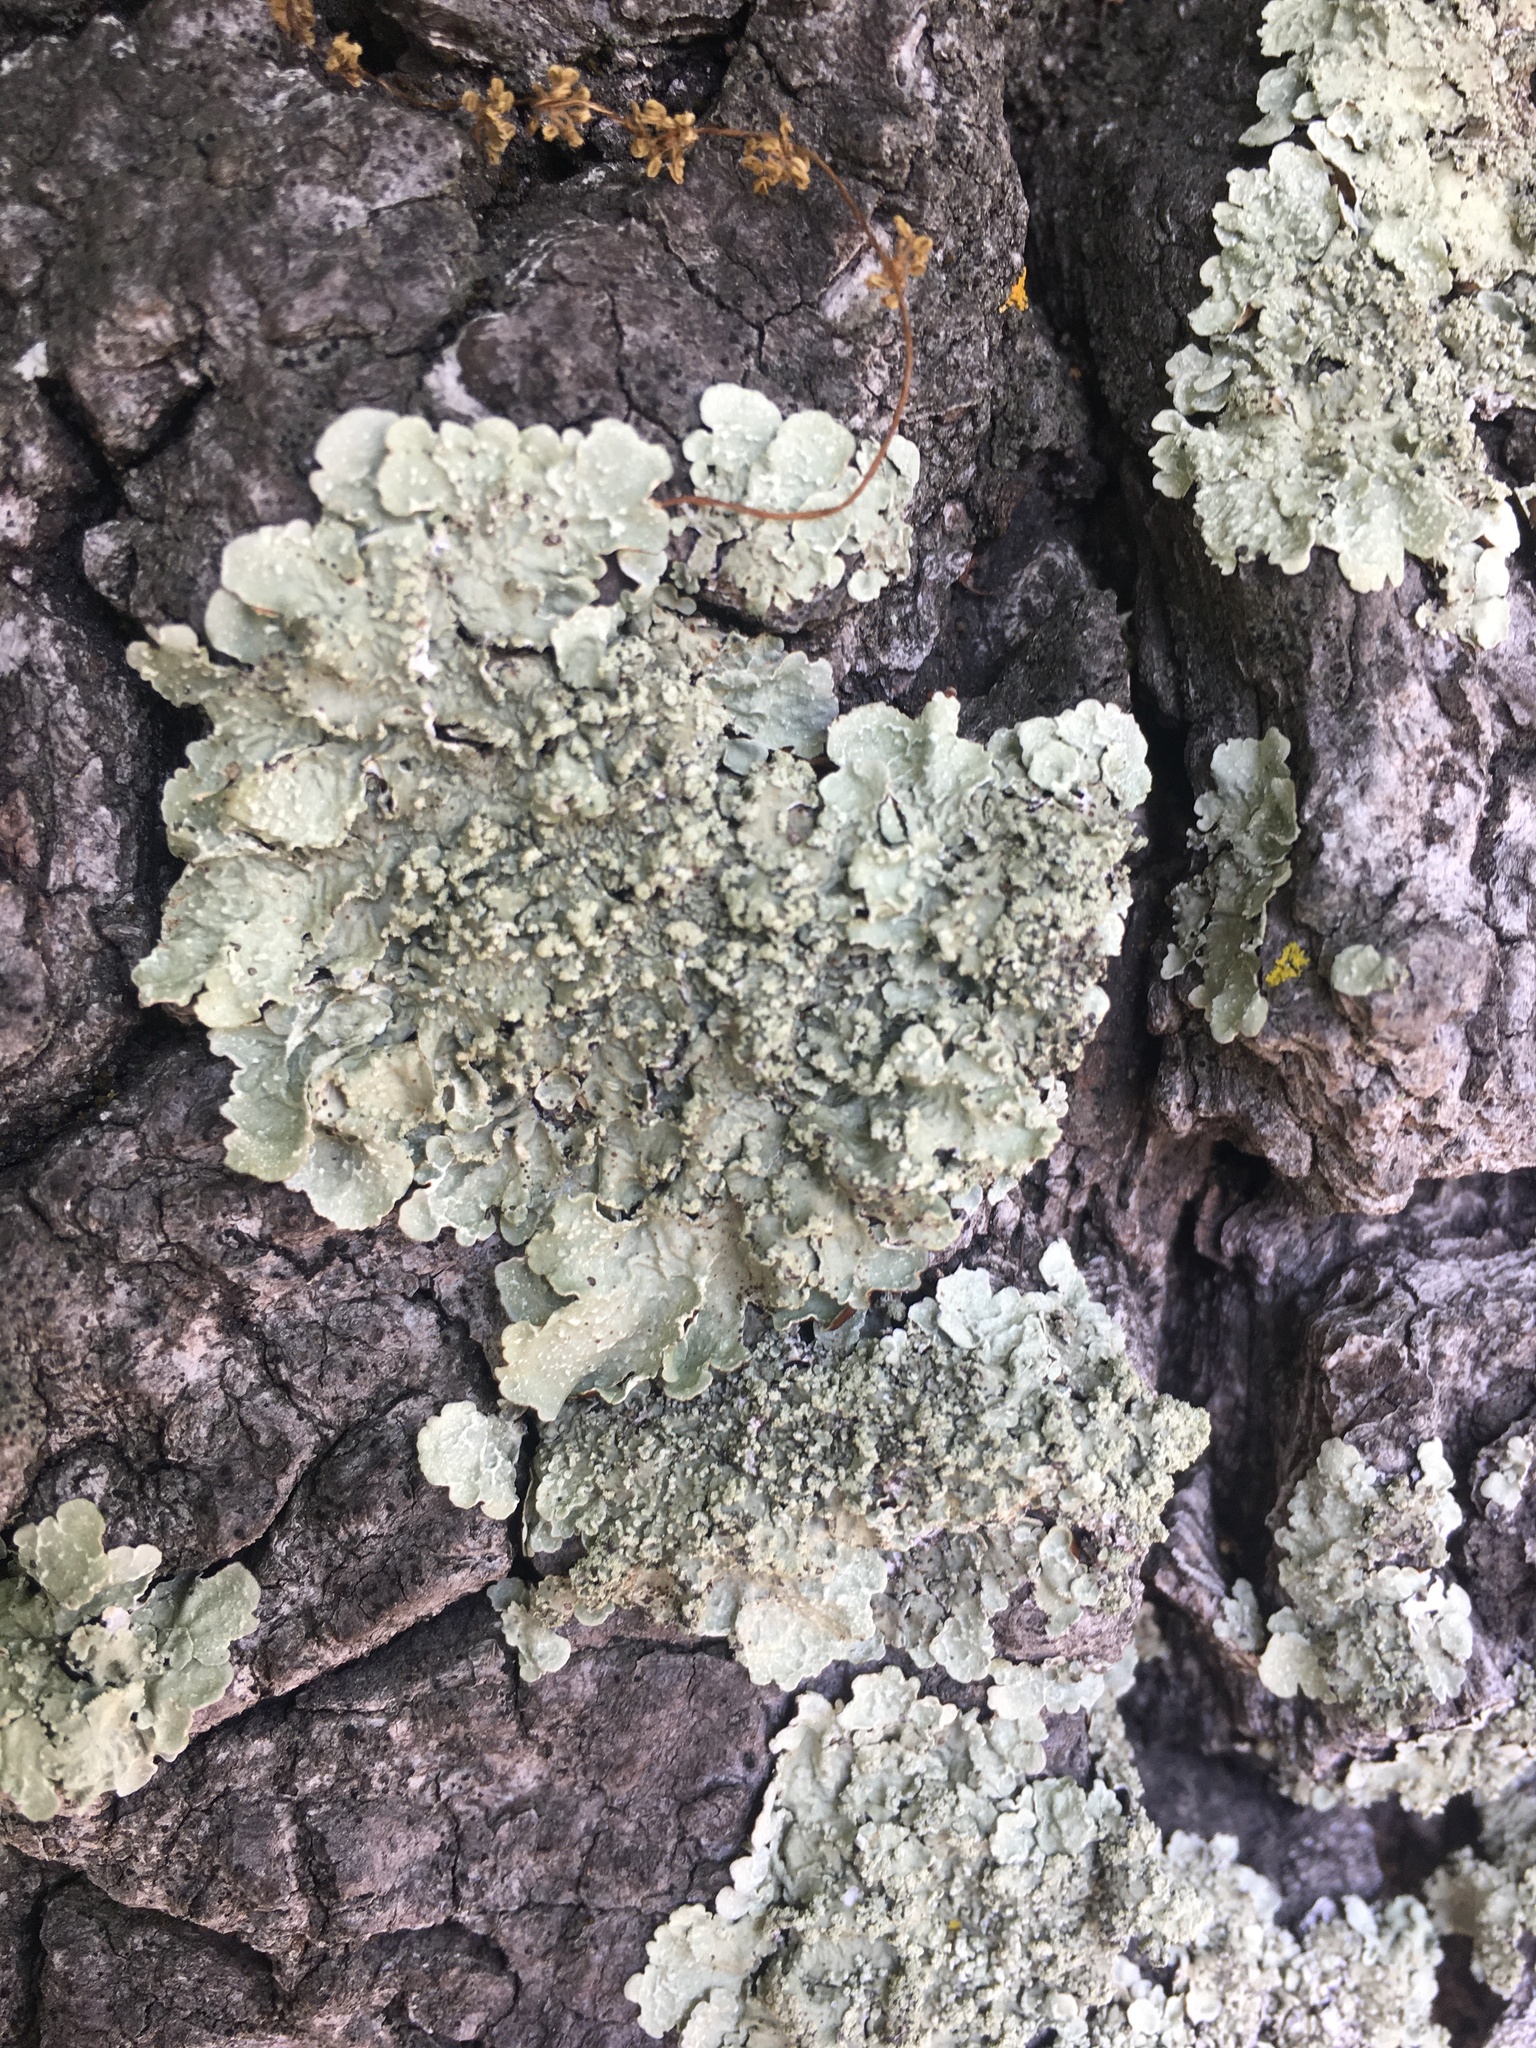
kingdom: Fungi
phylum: Ascomycota
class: Lecanoromycetes
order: Lecanorales
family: Parmeliaceae
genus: Flavopunctelia
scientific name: Flavopunctelia flaventior
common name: Speckled greenshield
